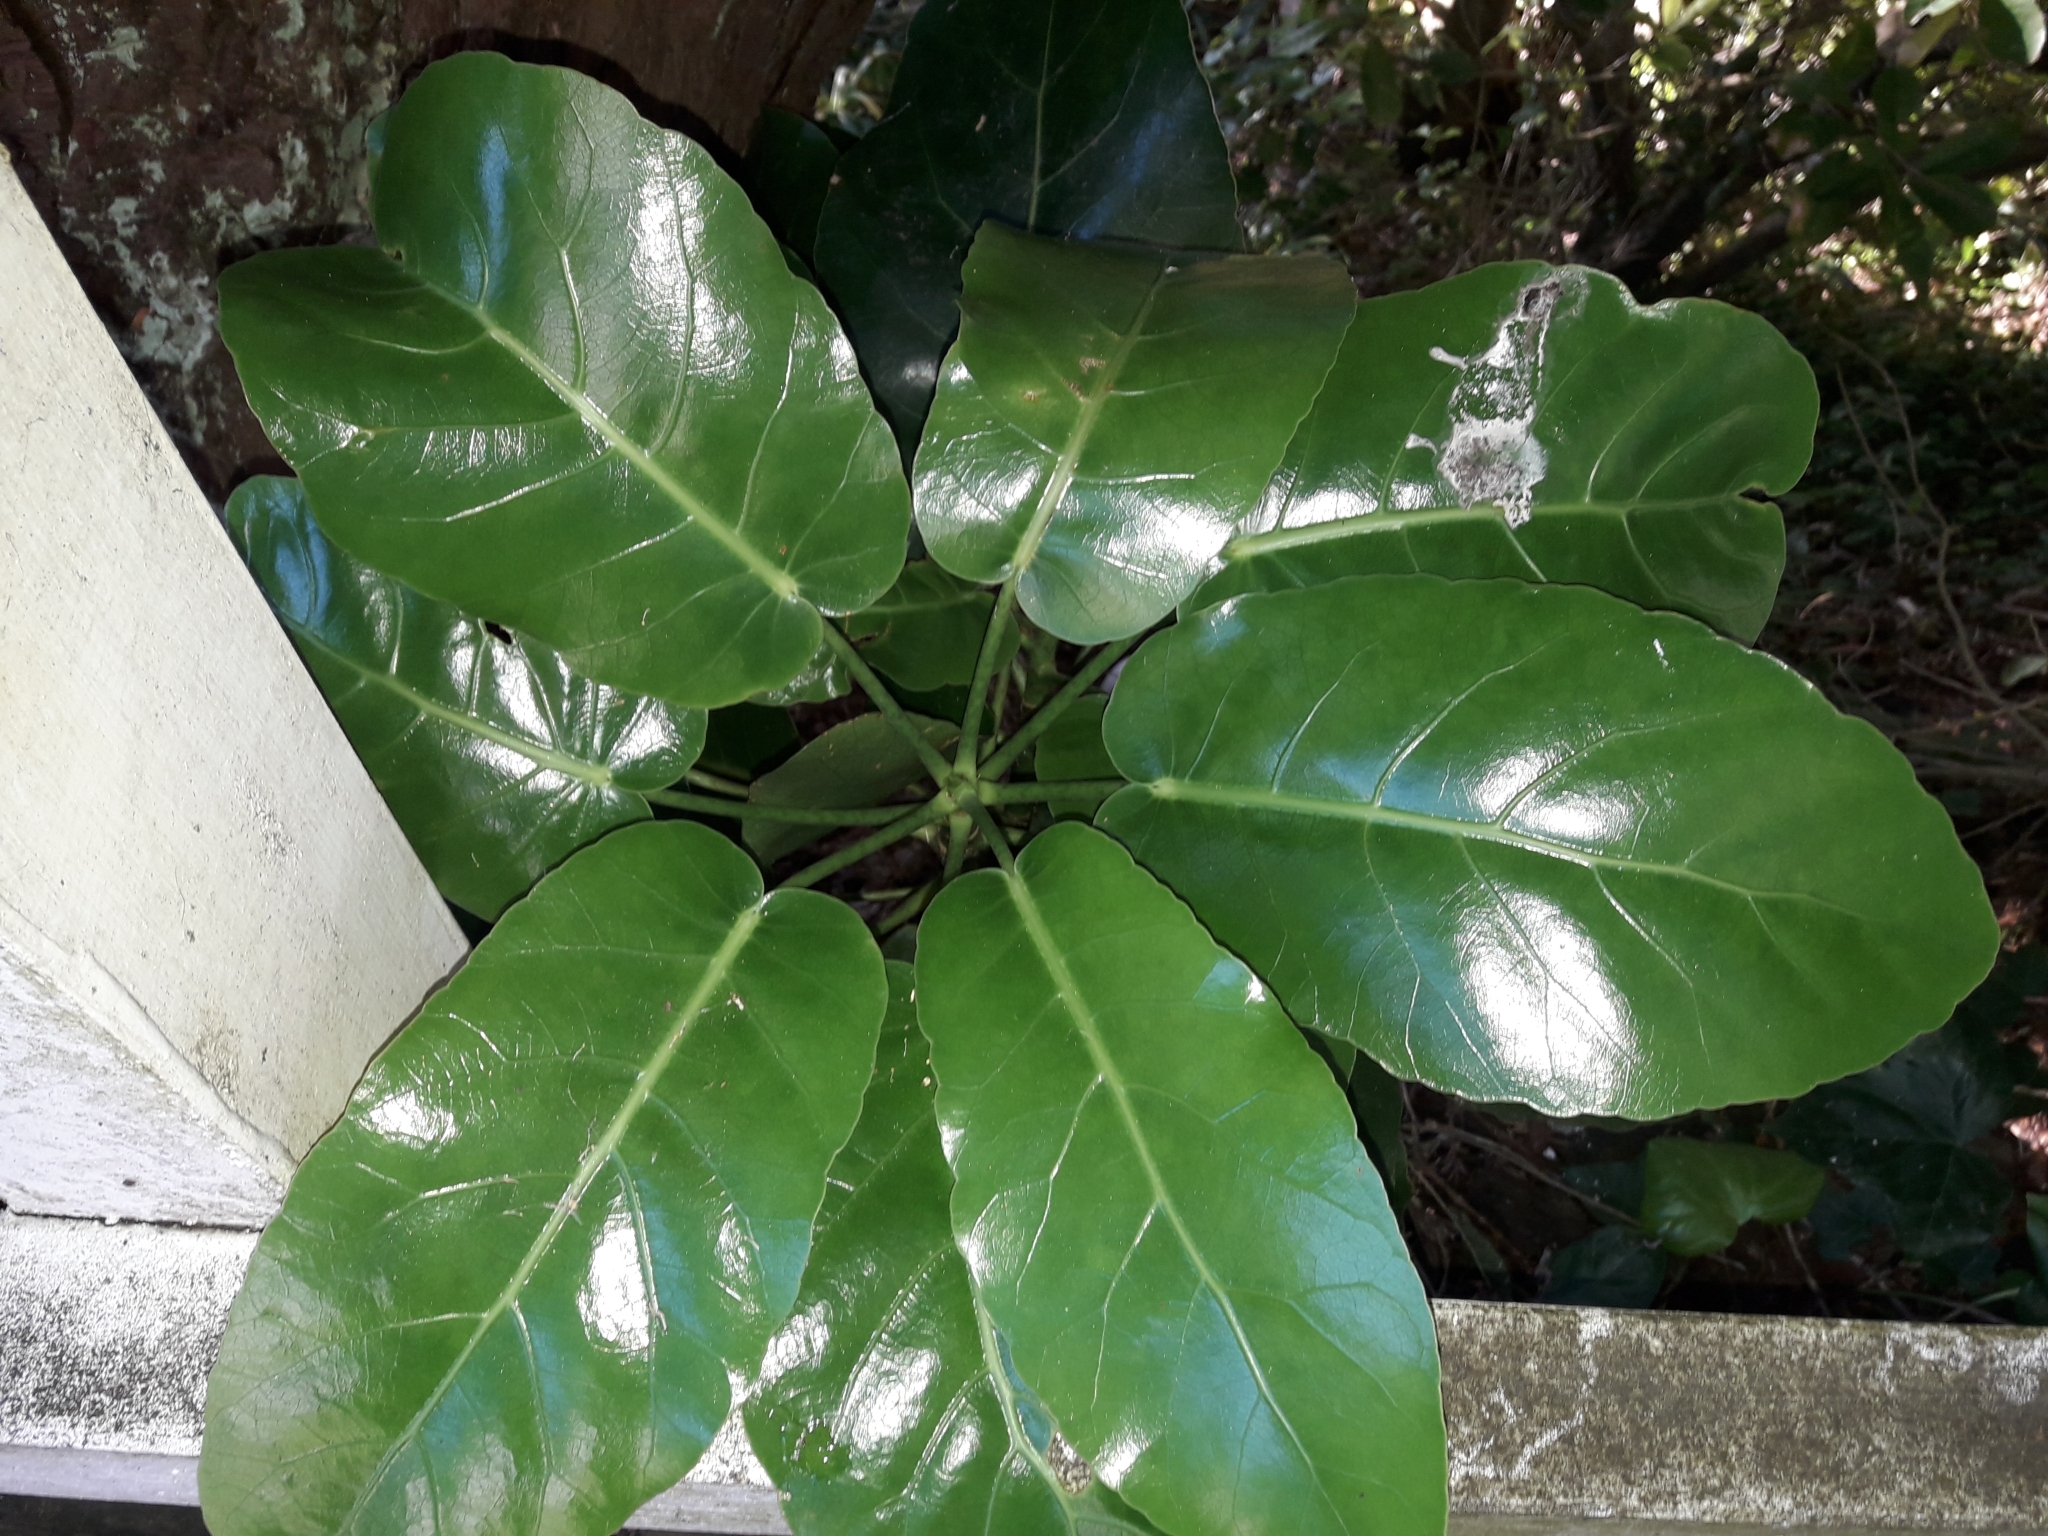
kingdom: Plantae
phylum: Tracheophyta
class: Magnoliopsida
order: Apiales
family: Araliaceae
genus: Meryta
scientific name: Meryta sinclairii
